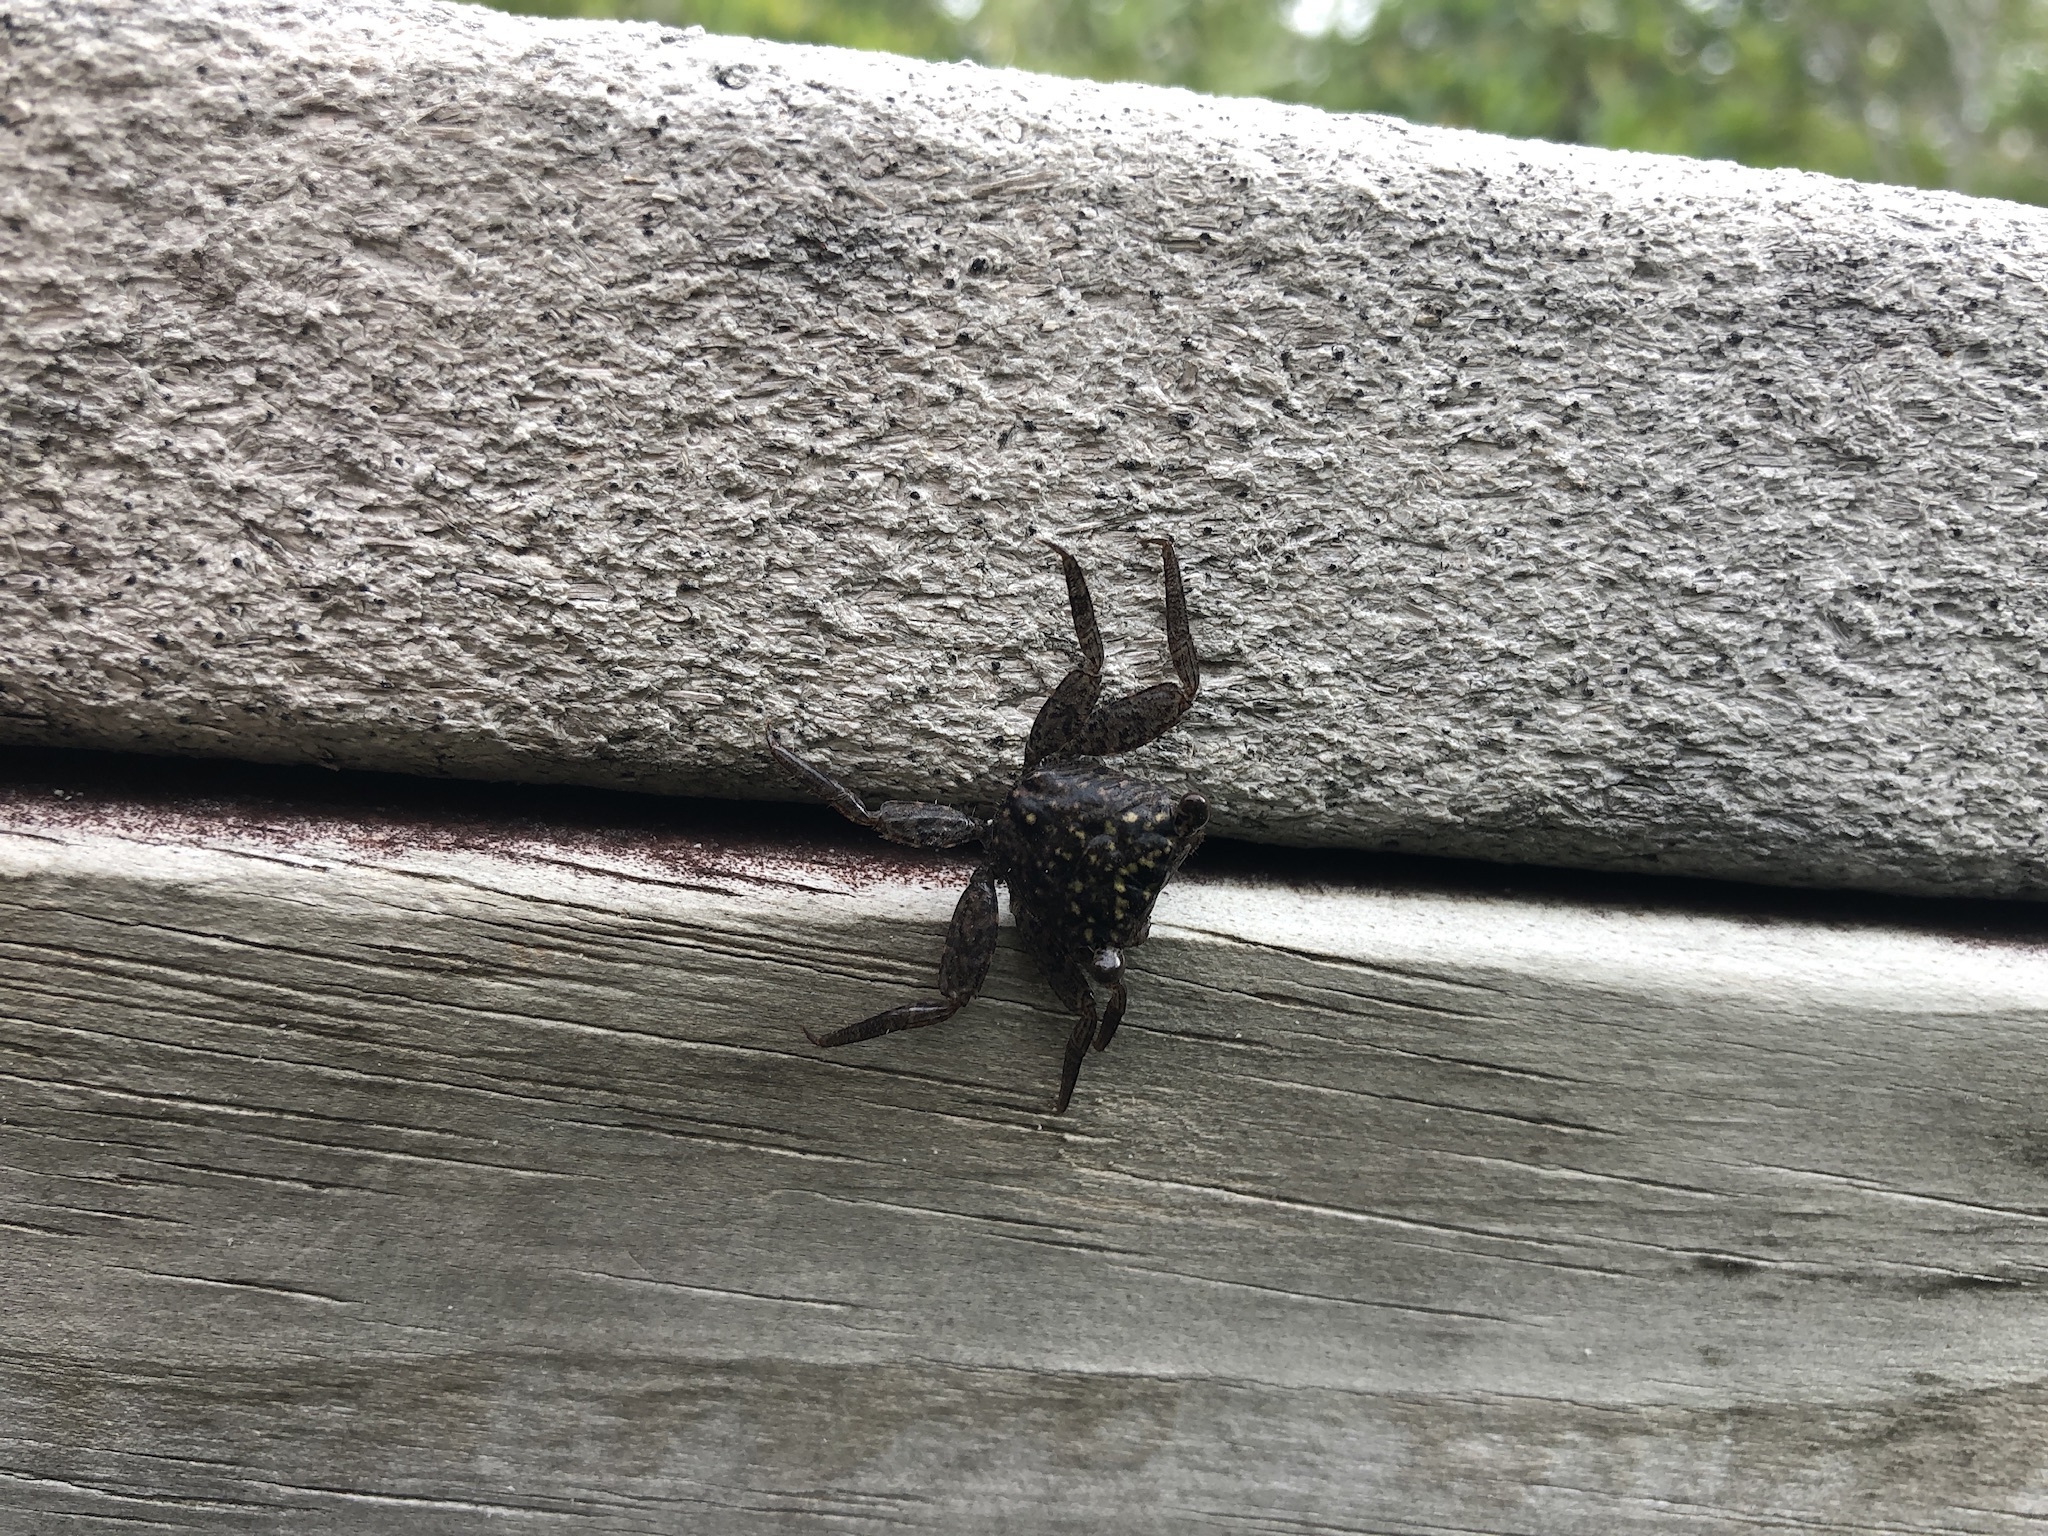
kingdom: Animalia
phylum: Arthropoda
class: Malacostraca
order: Decapoda
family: Sesarmidae
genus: Aratus
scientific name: Aratus pisonii
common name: Mangrove crab
